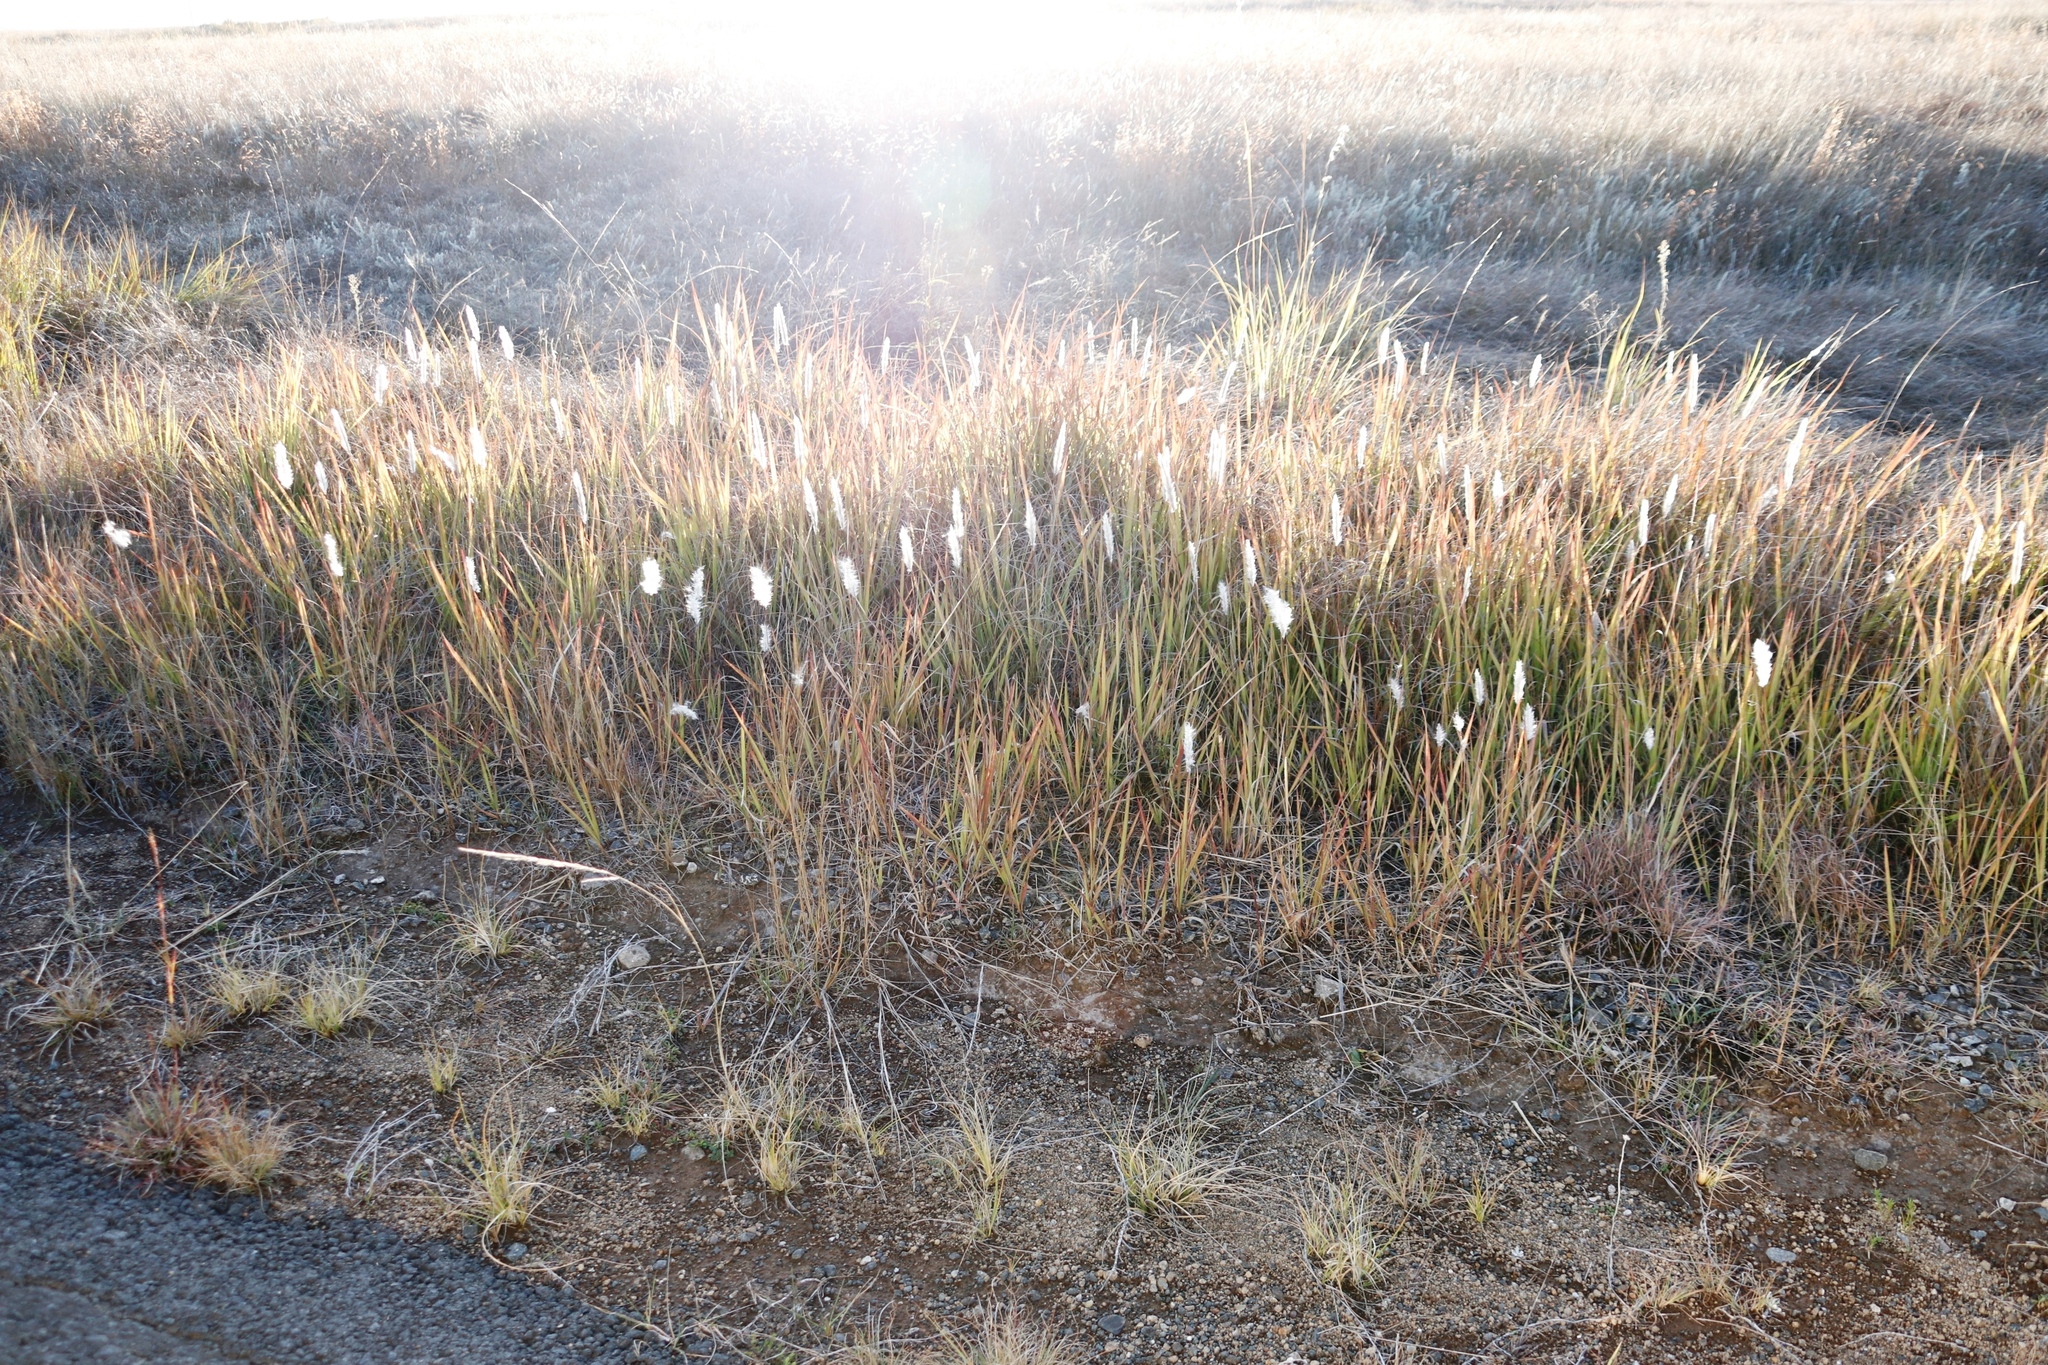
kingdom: Plantae
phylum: Tracheophyta
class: Liliopsida
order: Poales
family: Poaceae
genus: Imperata
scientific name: Imperata cylindrica
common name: Cogongrass
